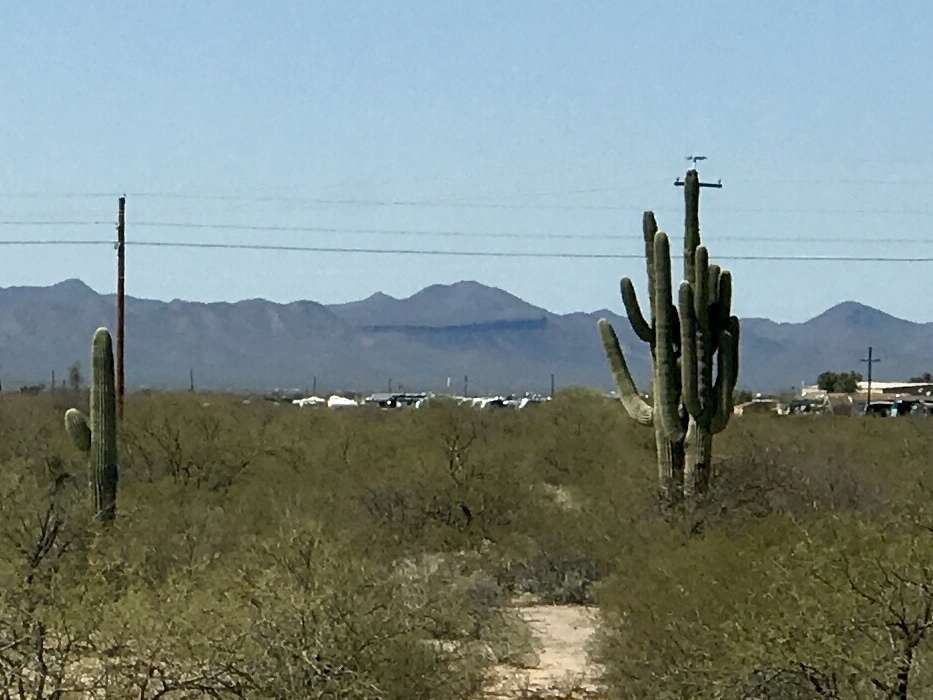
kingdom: Plantae
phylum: Tracheophyta
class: Magnoliopsida
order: Caryophyllales
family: Cactaceae
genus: Carnegiea
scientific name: Carnegiea gigantea
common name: Saguaro
